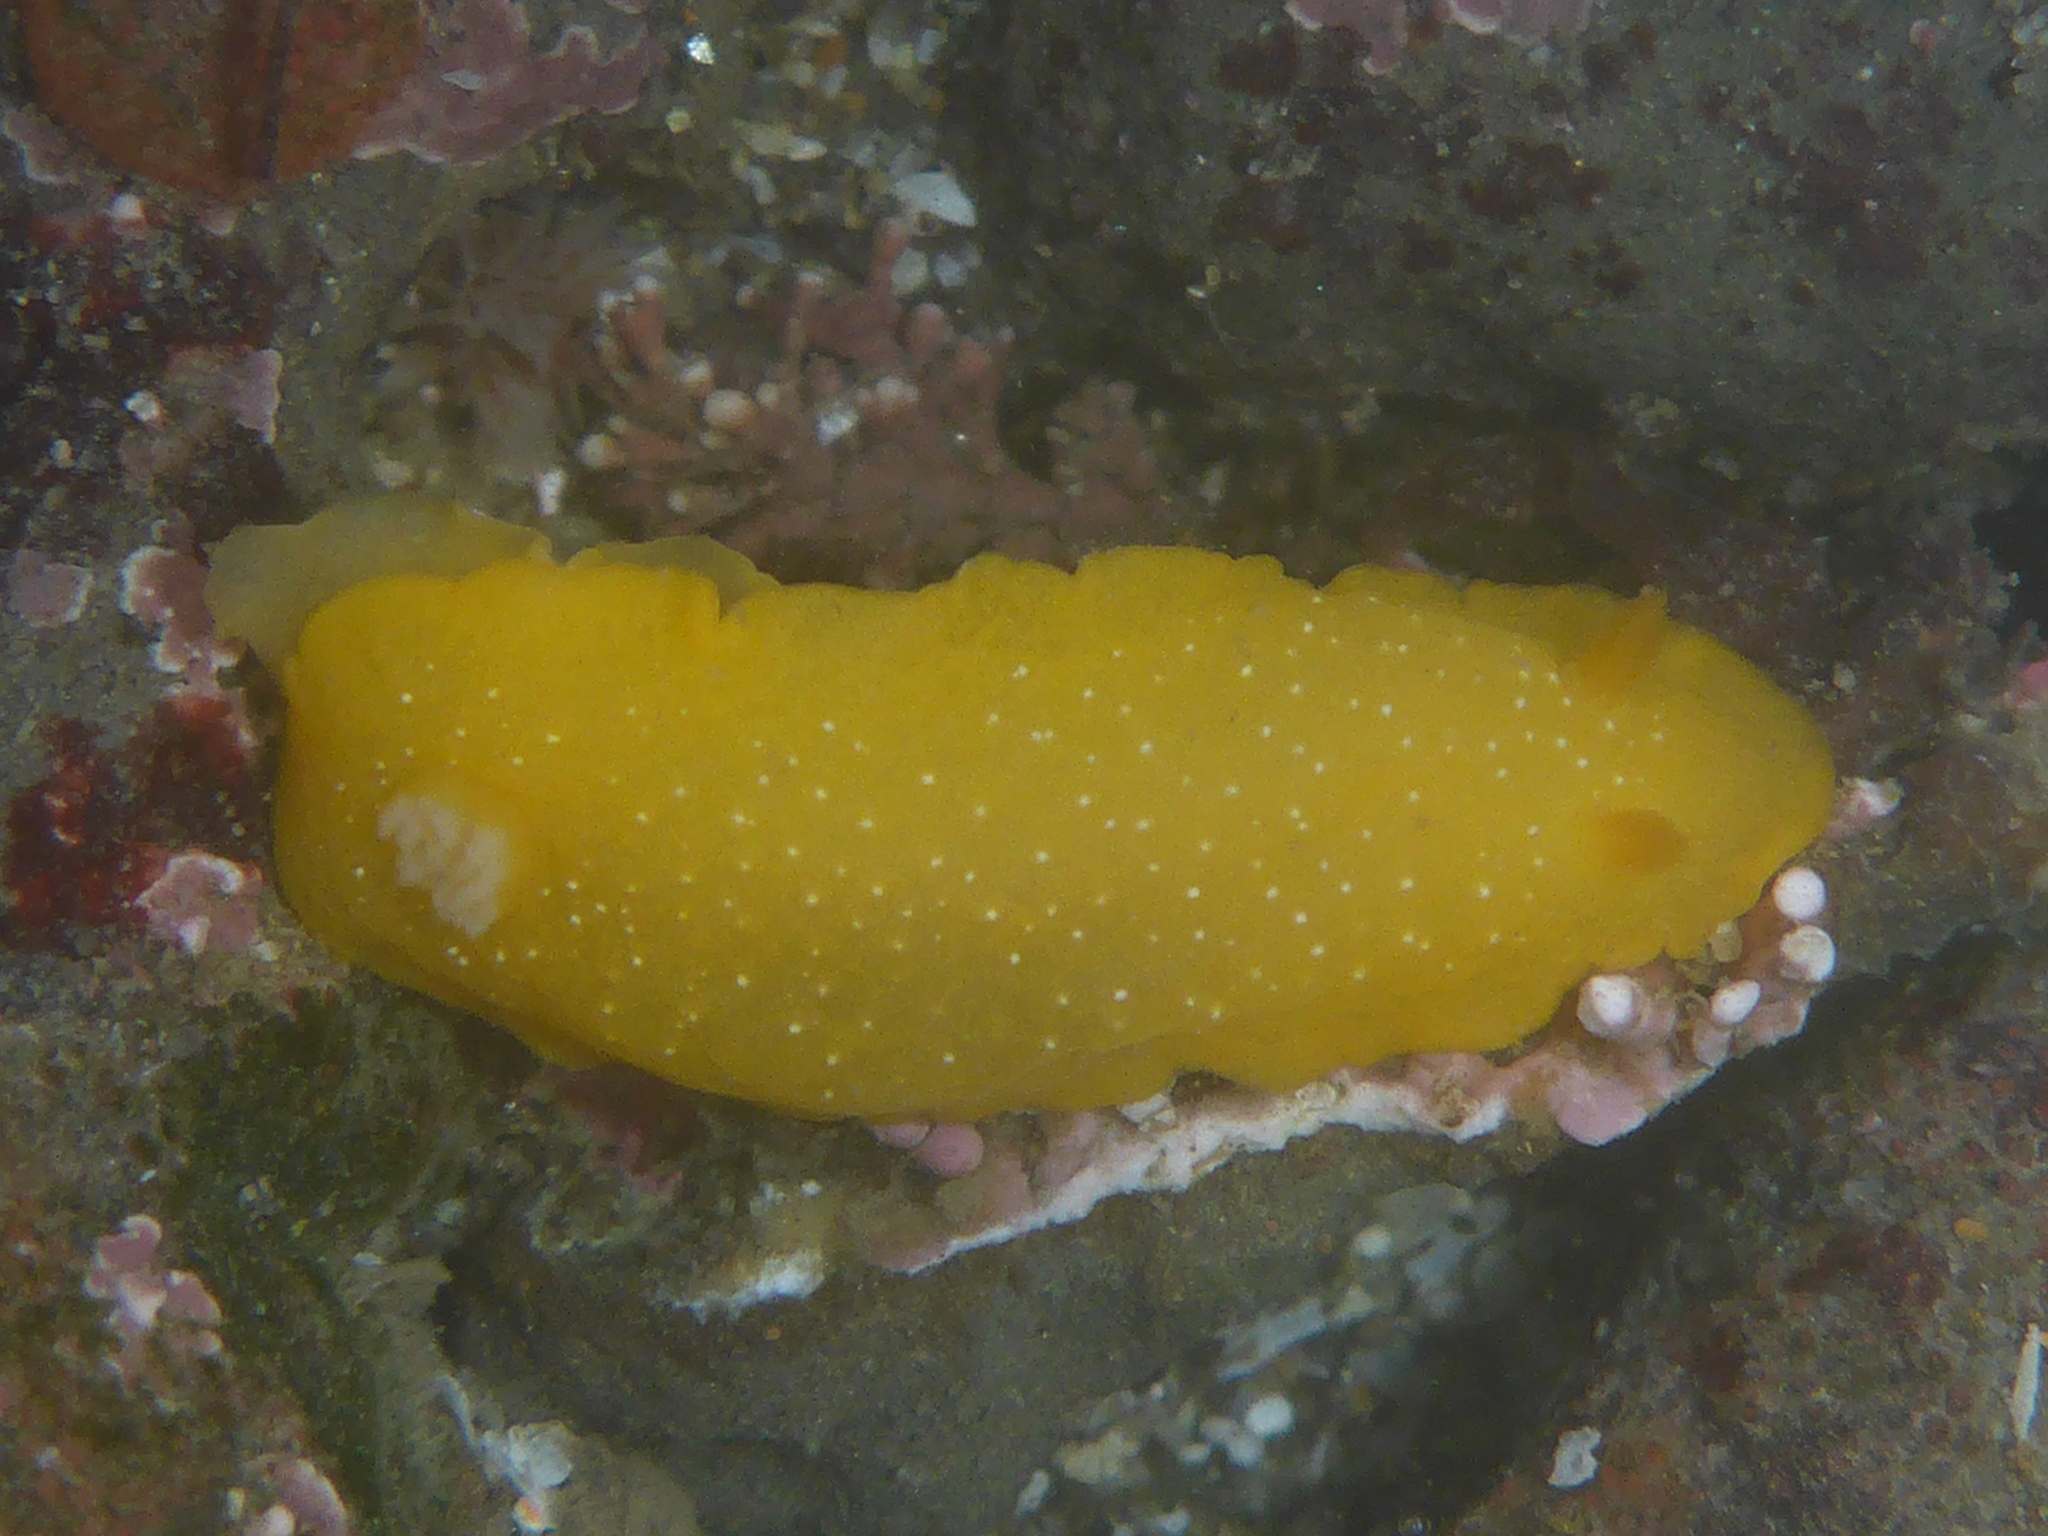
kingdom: Animalia
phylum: Mollusca
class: Gastropoda
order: Nudibranchia
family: Dendrodorididae
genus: Doriopsilla
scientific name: Doriopsilla fulva
